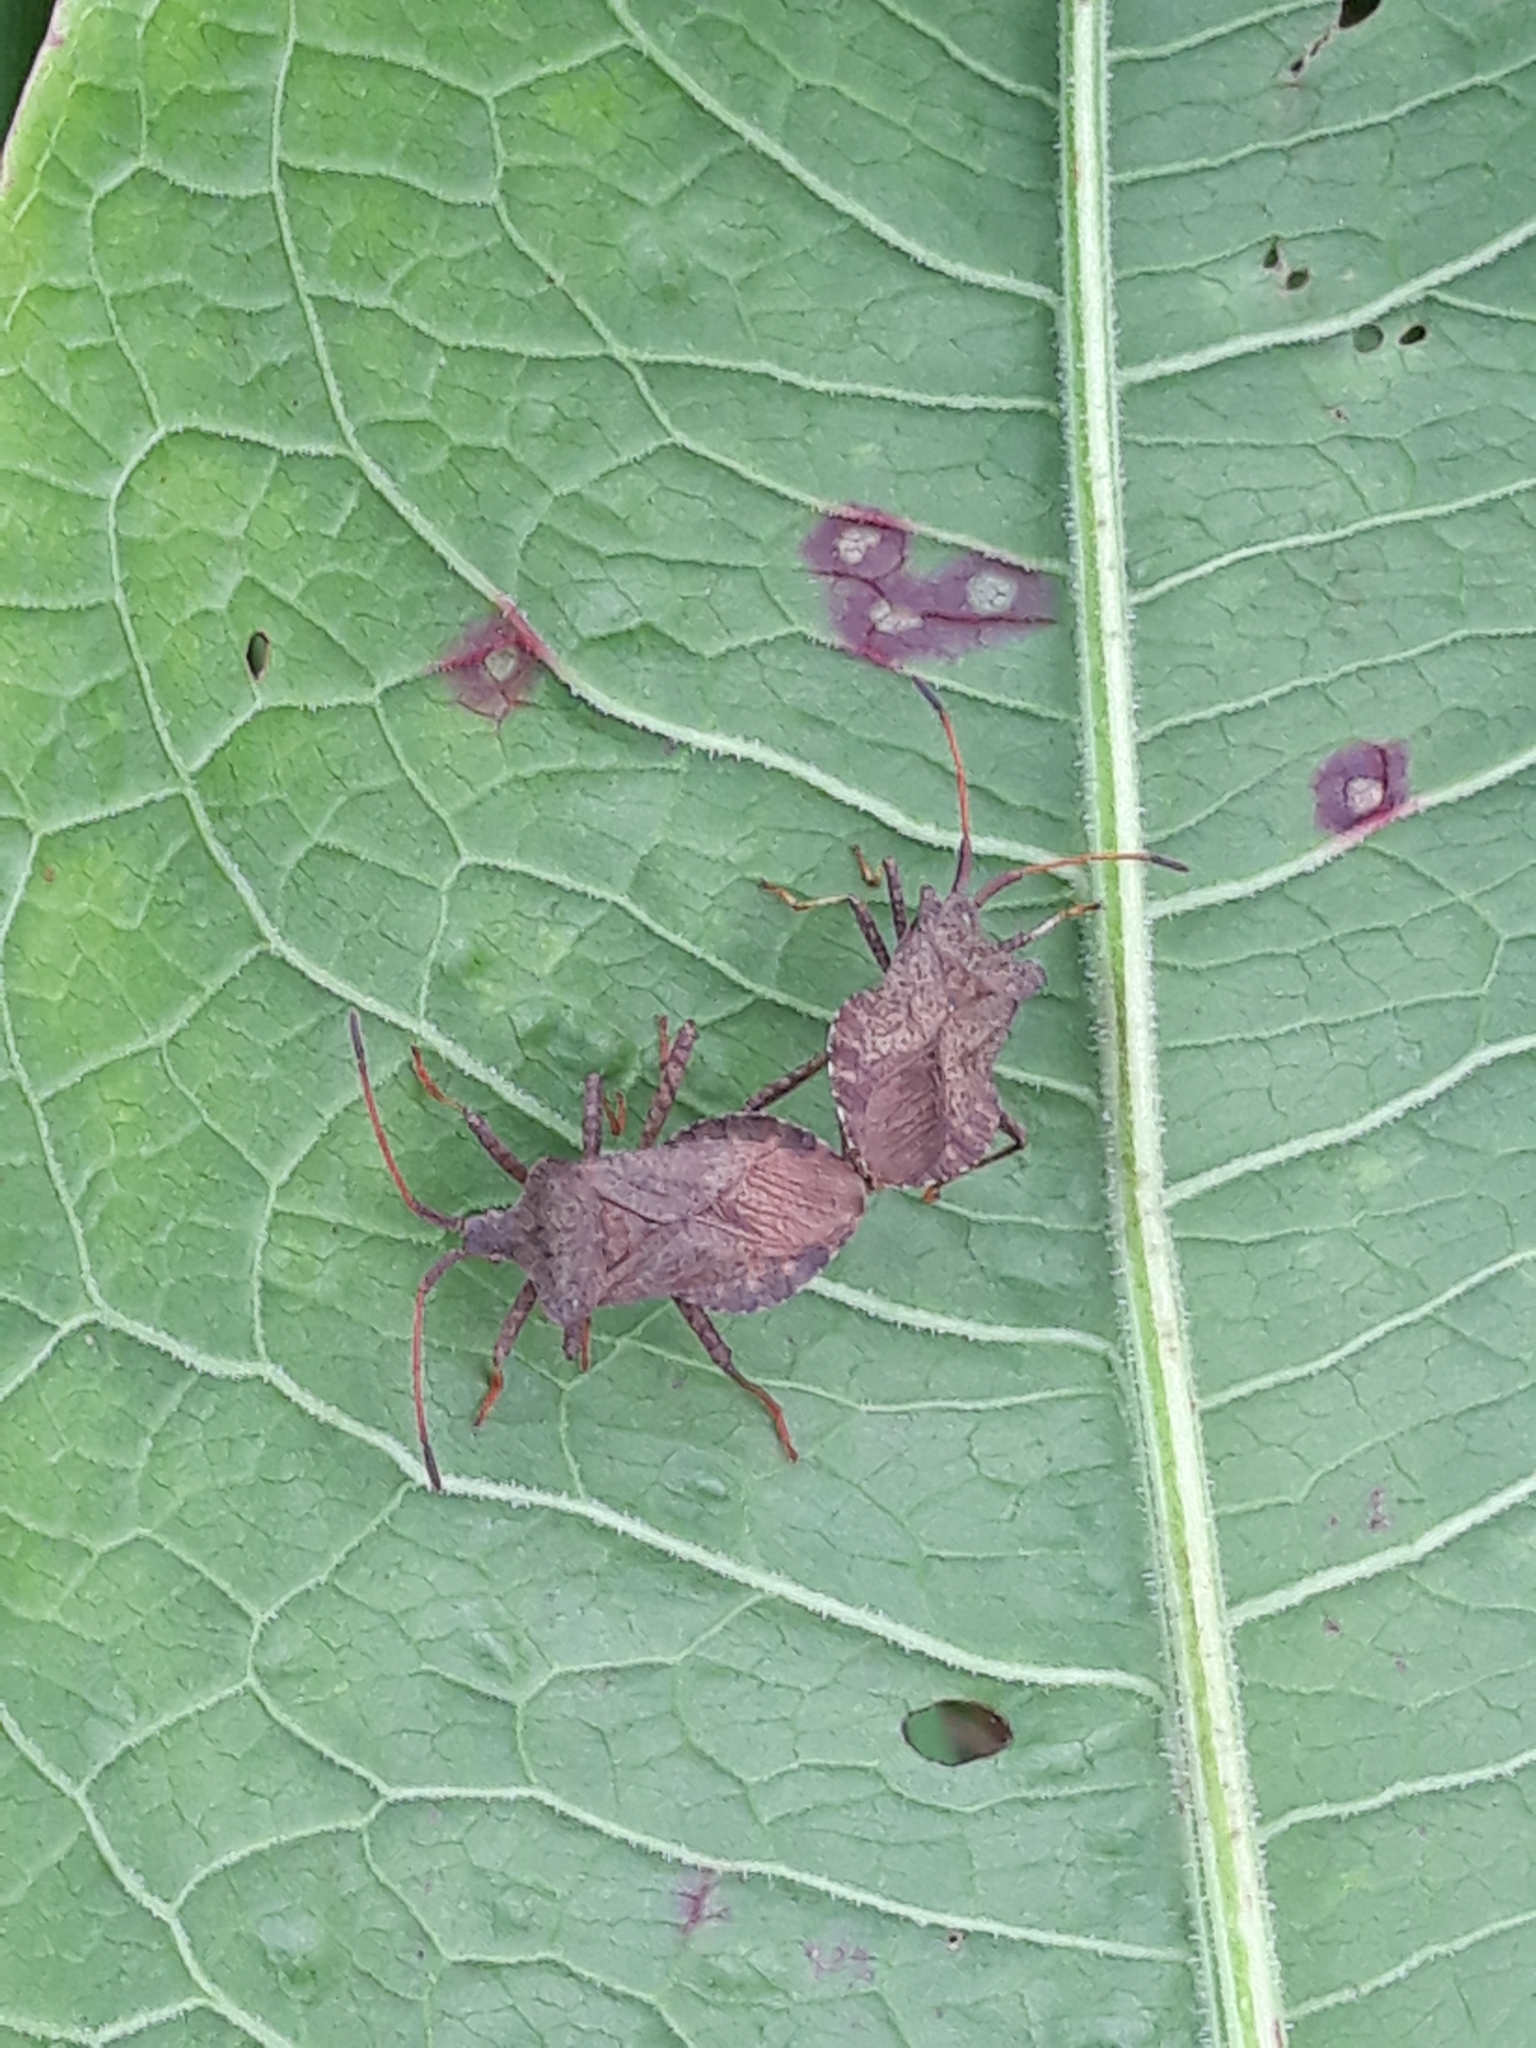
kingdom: Animalia
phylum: Arthropoda
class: Insecta
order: Hemiptera
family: Coreidae
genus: Coreus
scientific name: Coreus marginatus
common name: Dock bug
